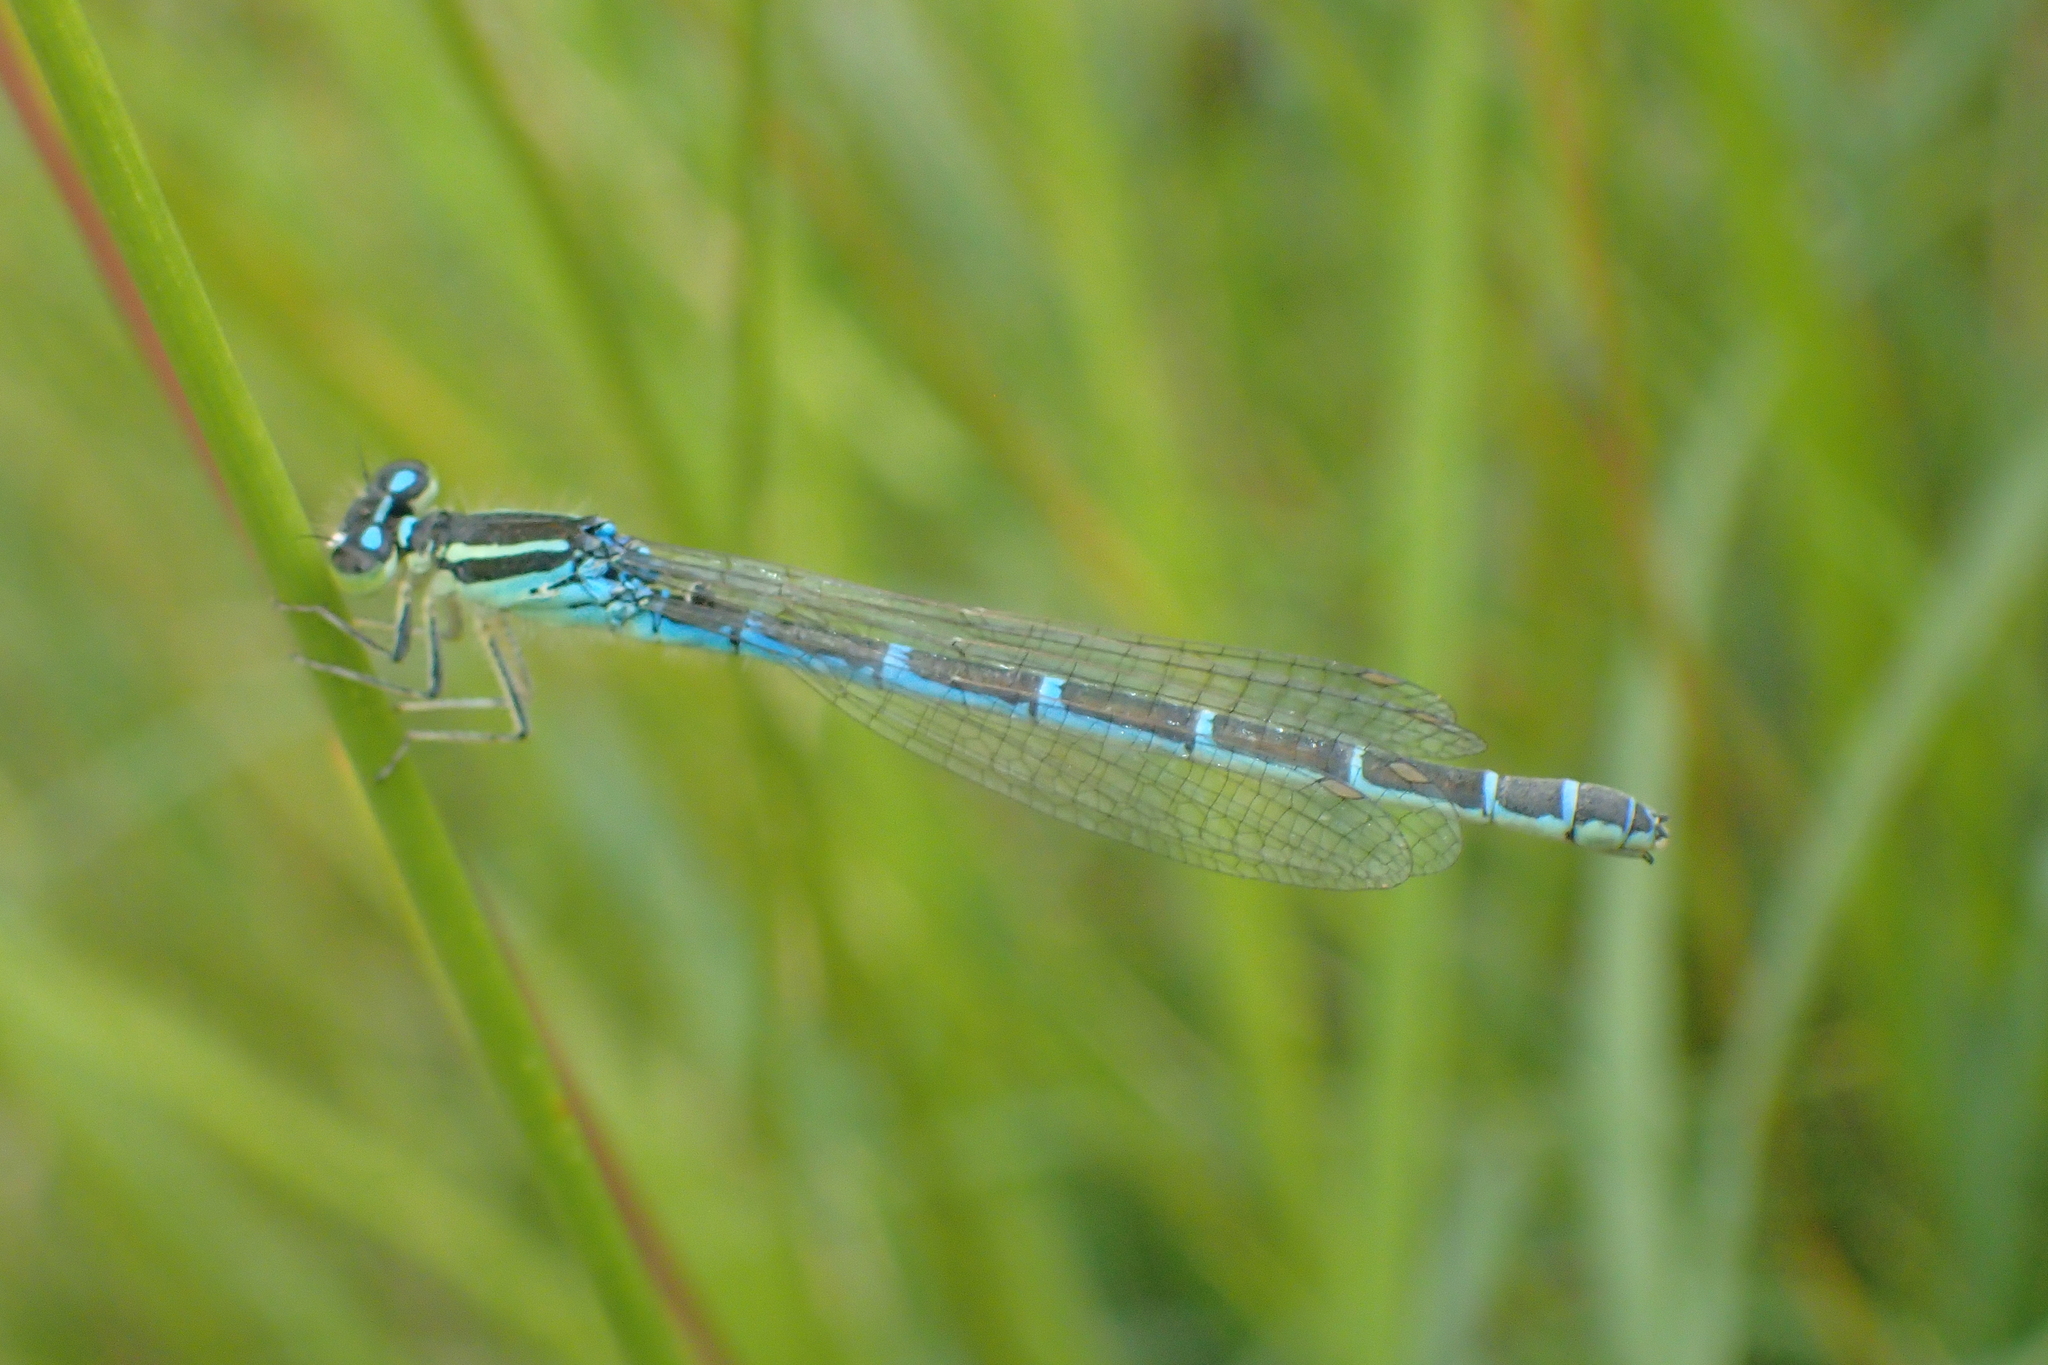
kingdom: Animalia
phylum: Arthropoda
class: Insecta
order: Odonata
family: Coenagrionidae
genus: Coenagrion
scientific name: Coenagrion scitulum
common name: Dainty bluet
